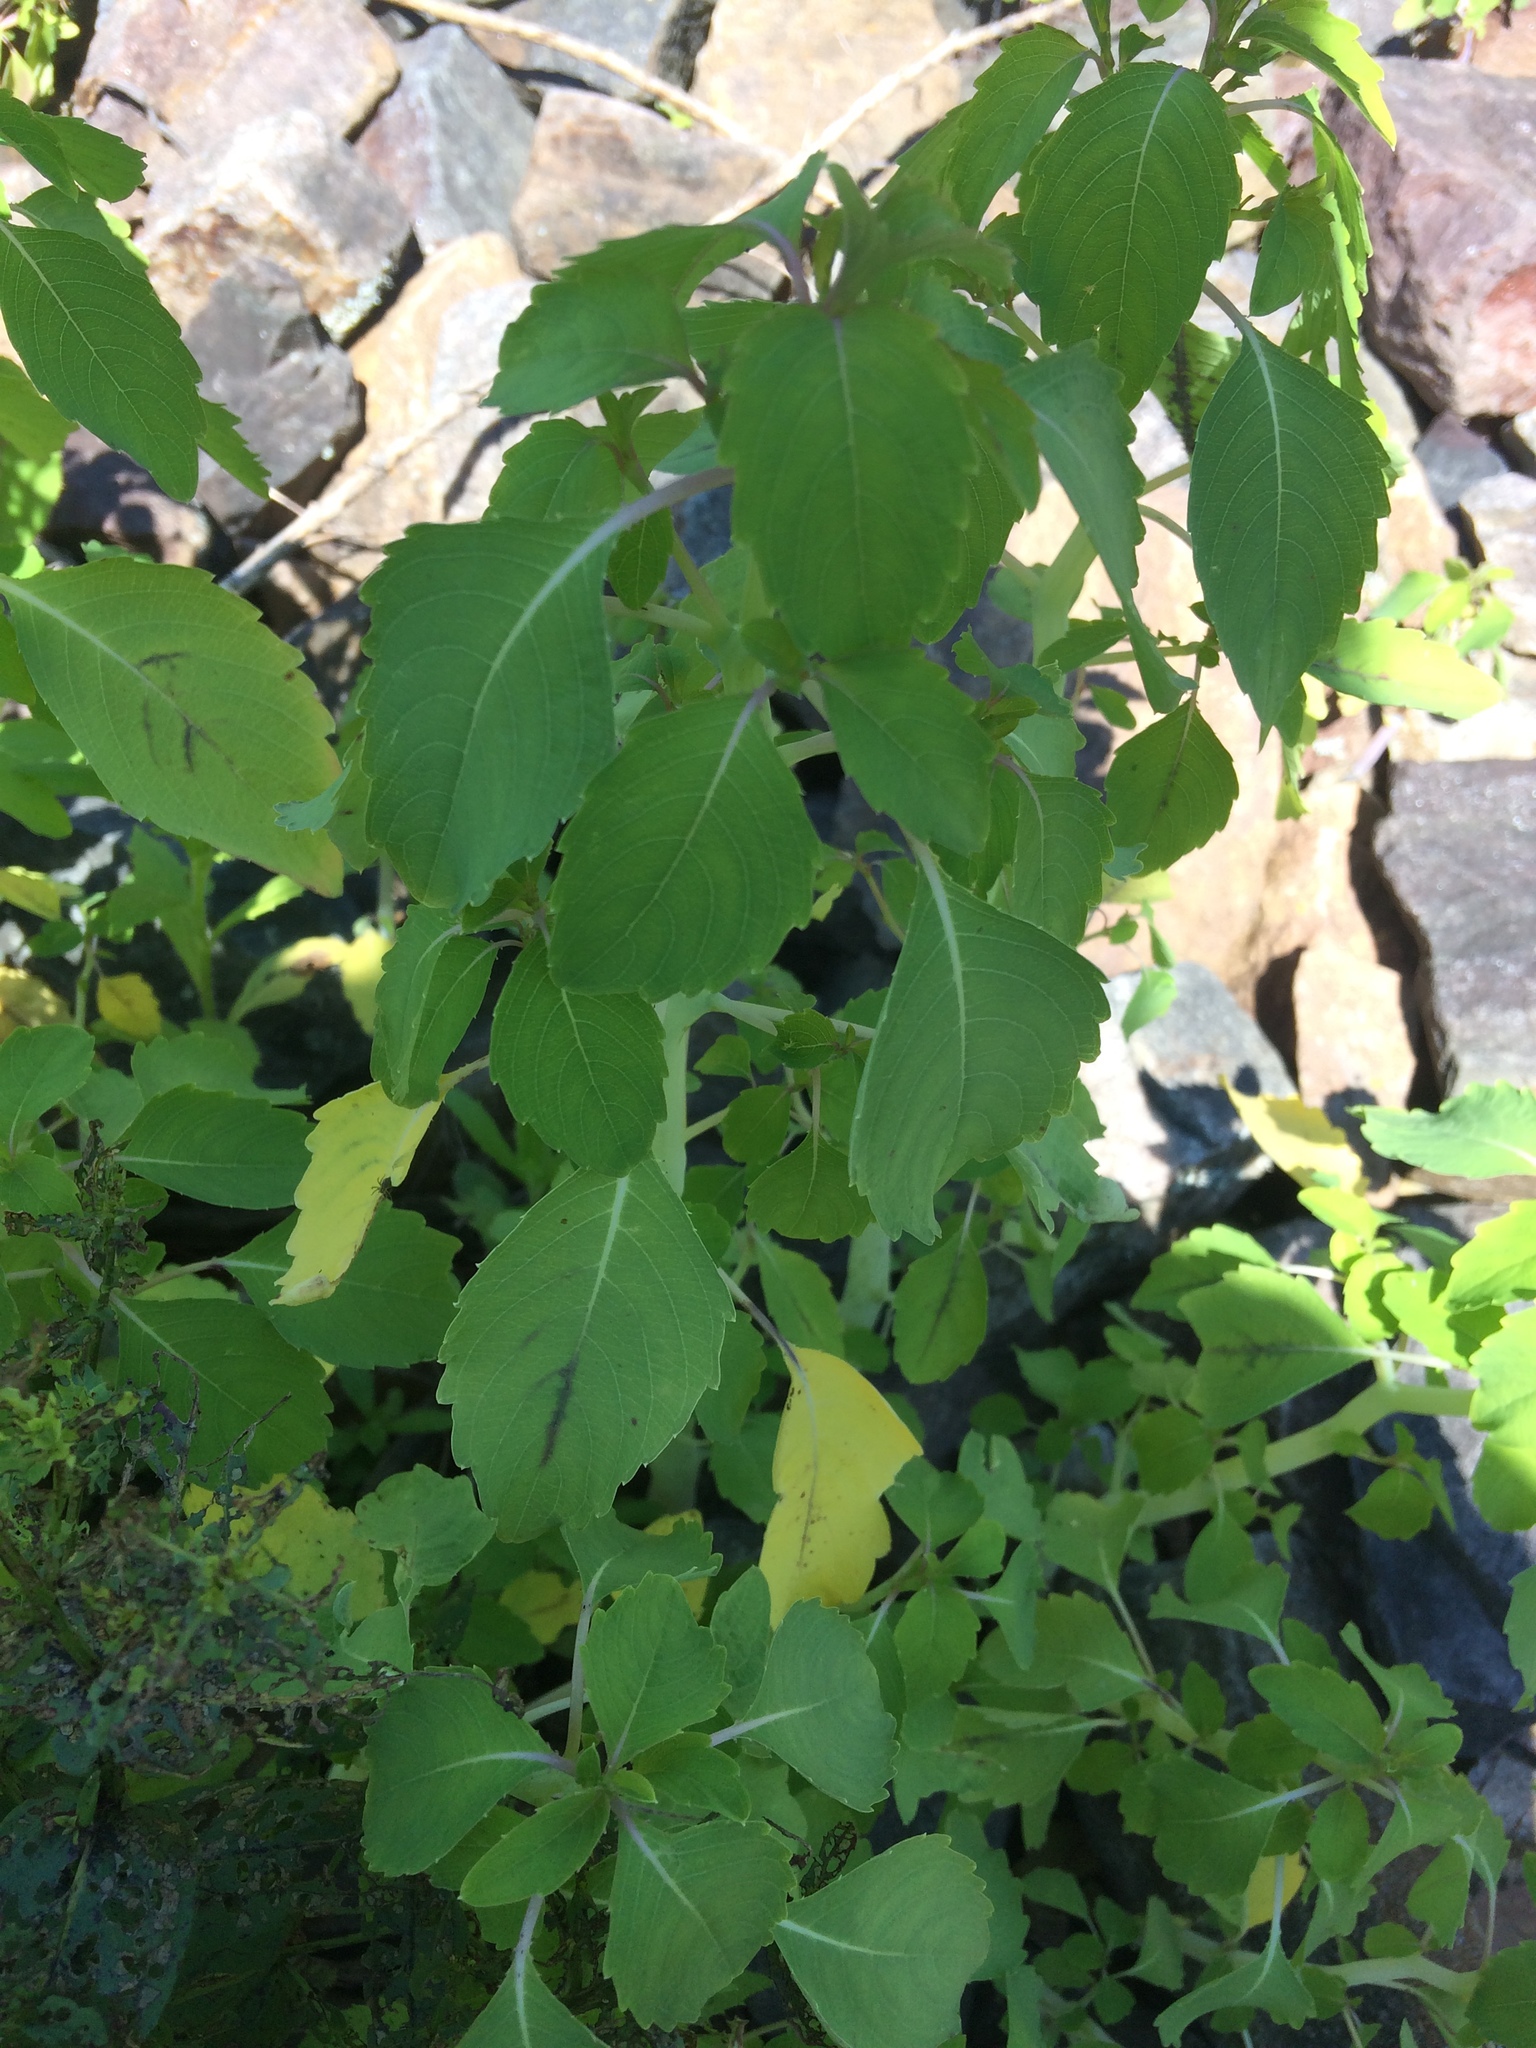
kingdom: Plantae
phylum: Tracheophyta
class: Magnoliopsida
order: Ericales
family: Balsaminaceae
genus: Impatiens
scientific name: Impatiens capensis
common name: Orange balsam
